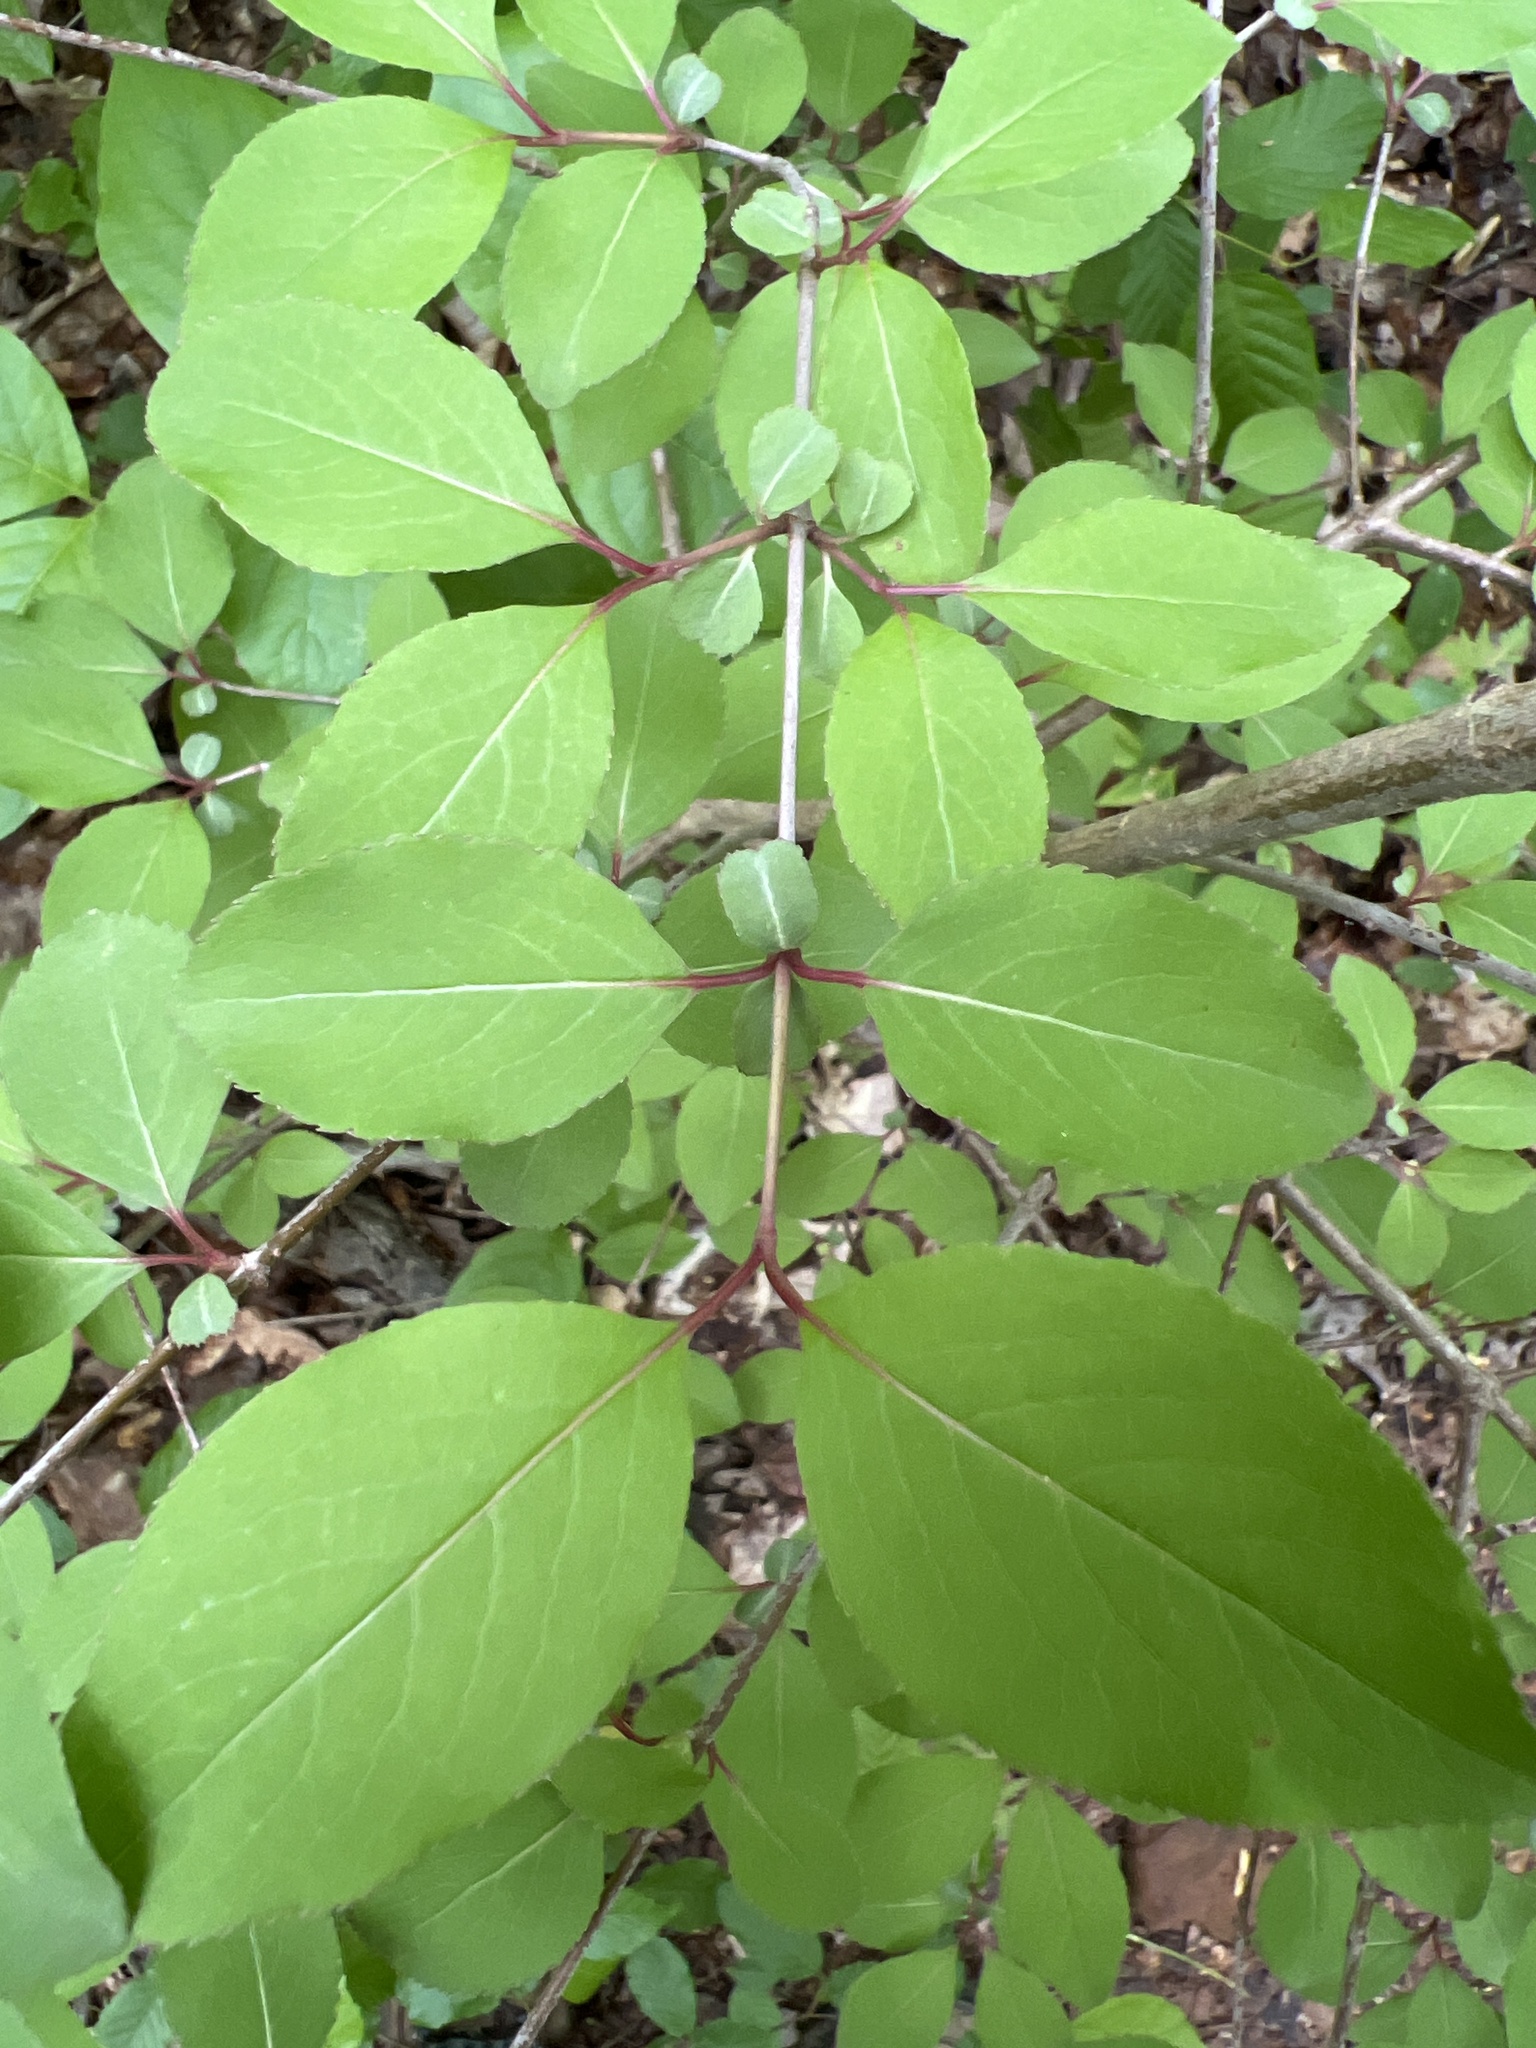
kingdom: Plantae
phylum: Tracheophyta
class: Magnoliopsida
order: Dipsacales
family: Viburnaceae
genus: Viburnum
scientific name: Viburnum prunifolium
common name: Black haw
